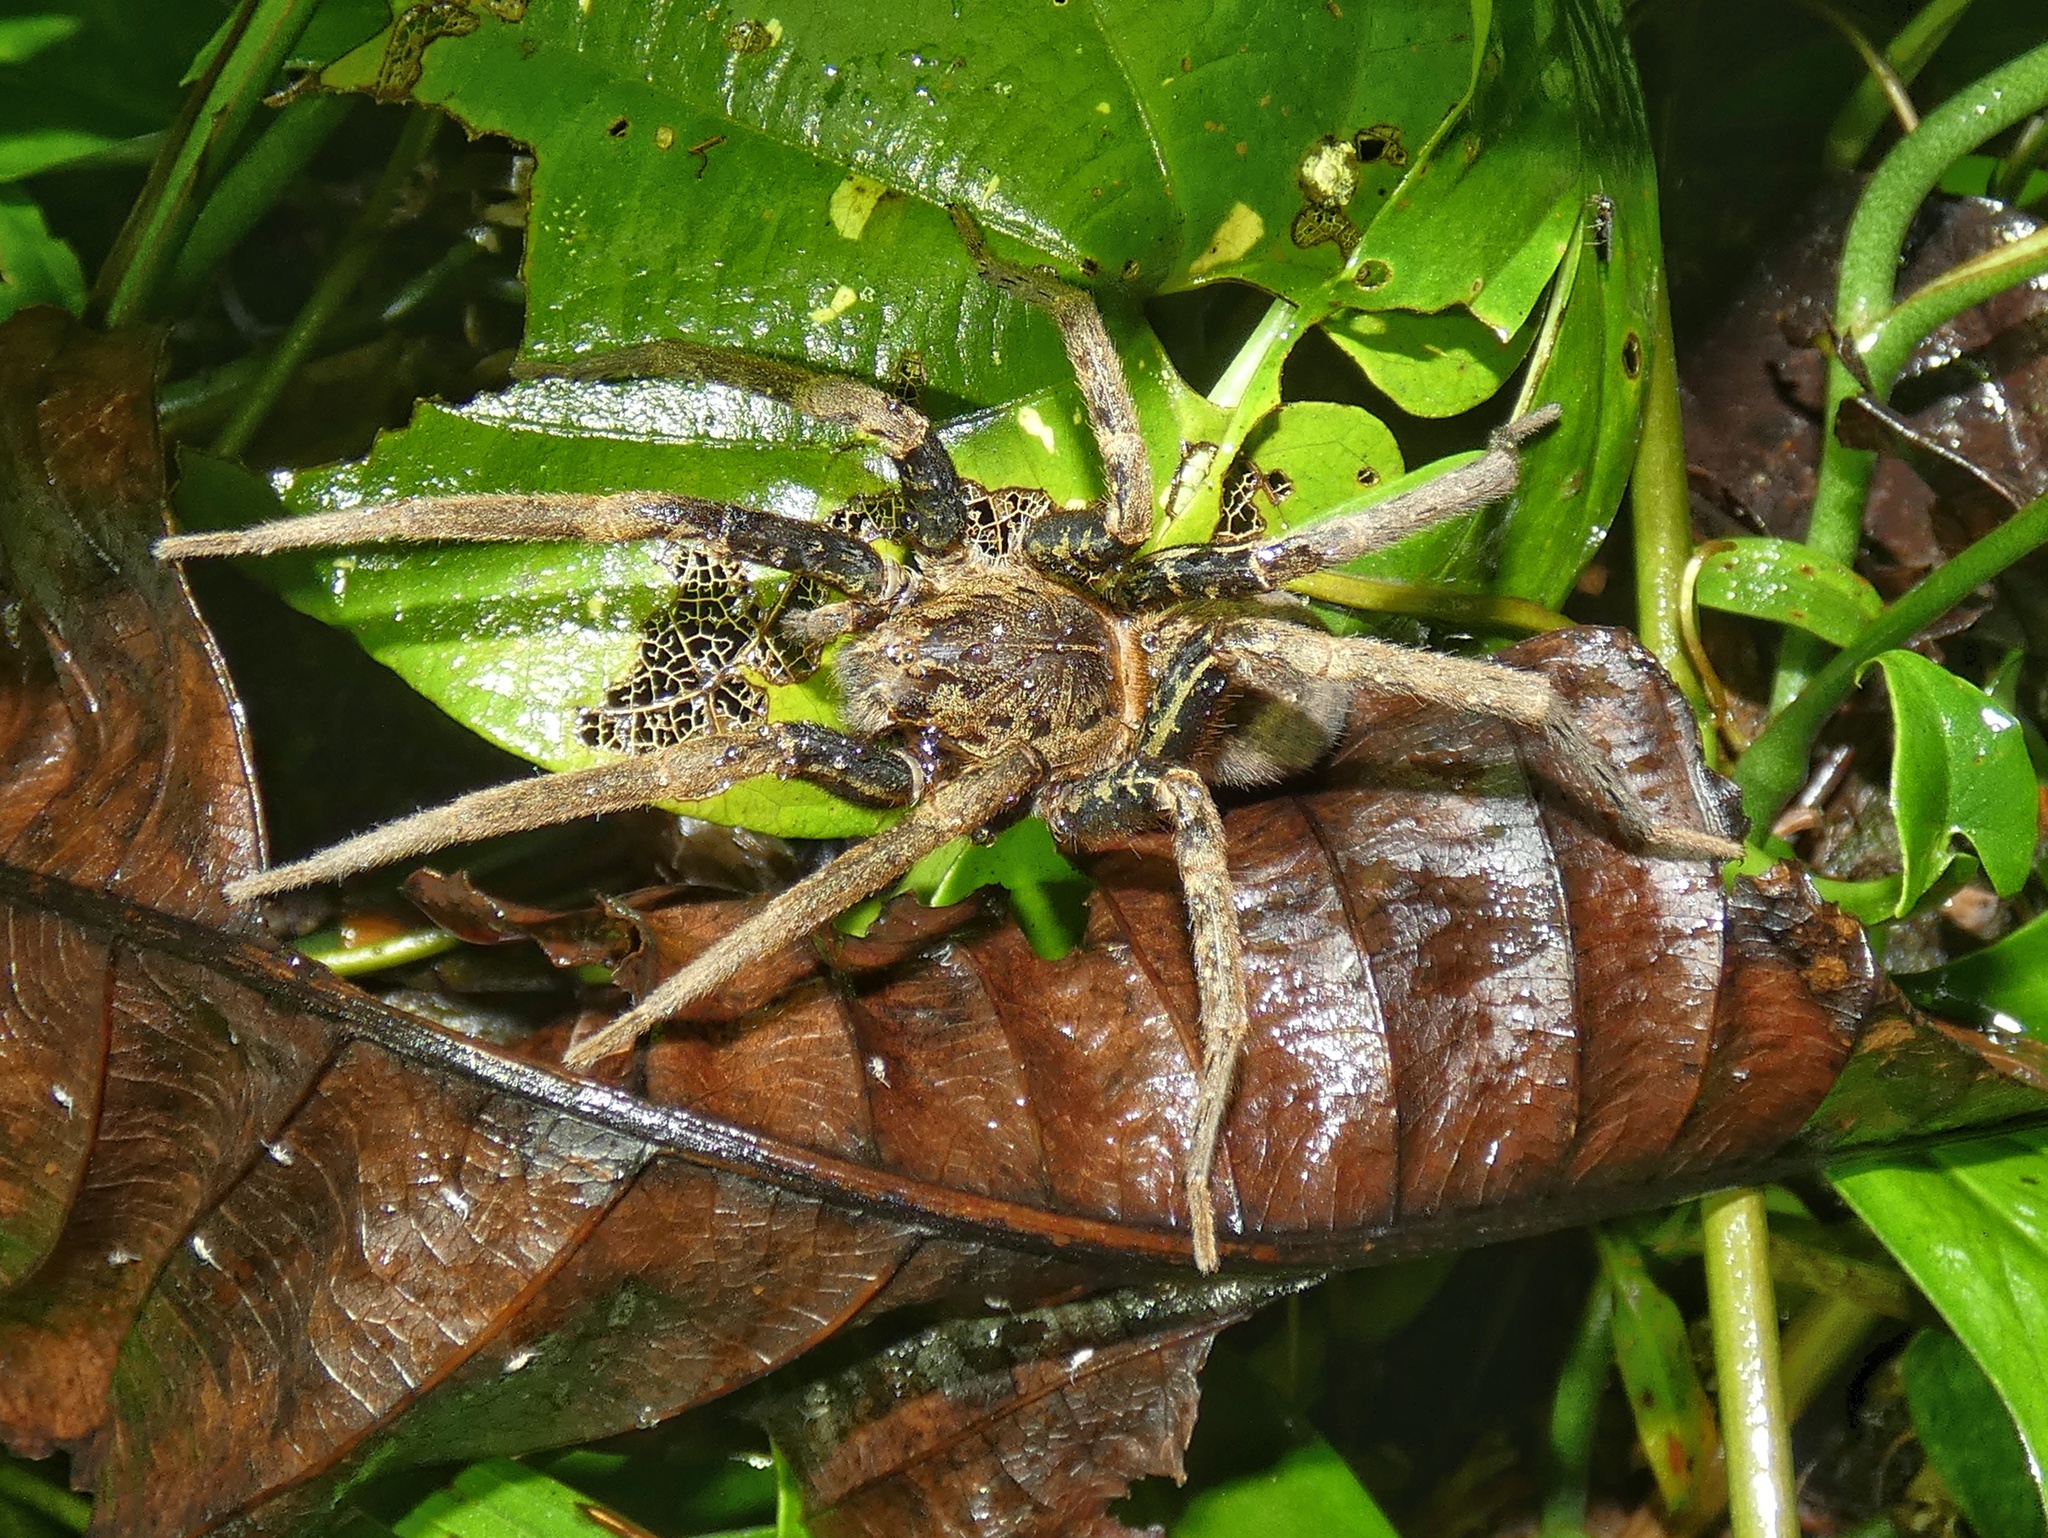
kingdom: Animalia
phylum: Arthropoda
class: Arachnida
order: Araneae
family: Ctenidae
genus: Ancylometes
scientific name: Ancylometes bogotensis
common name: Wandering spiders
